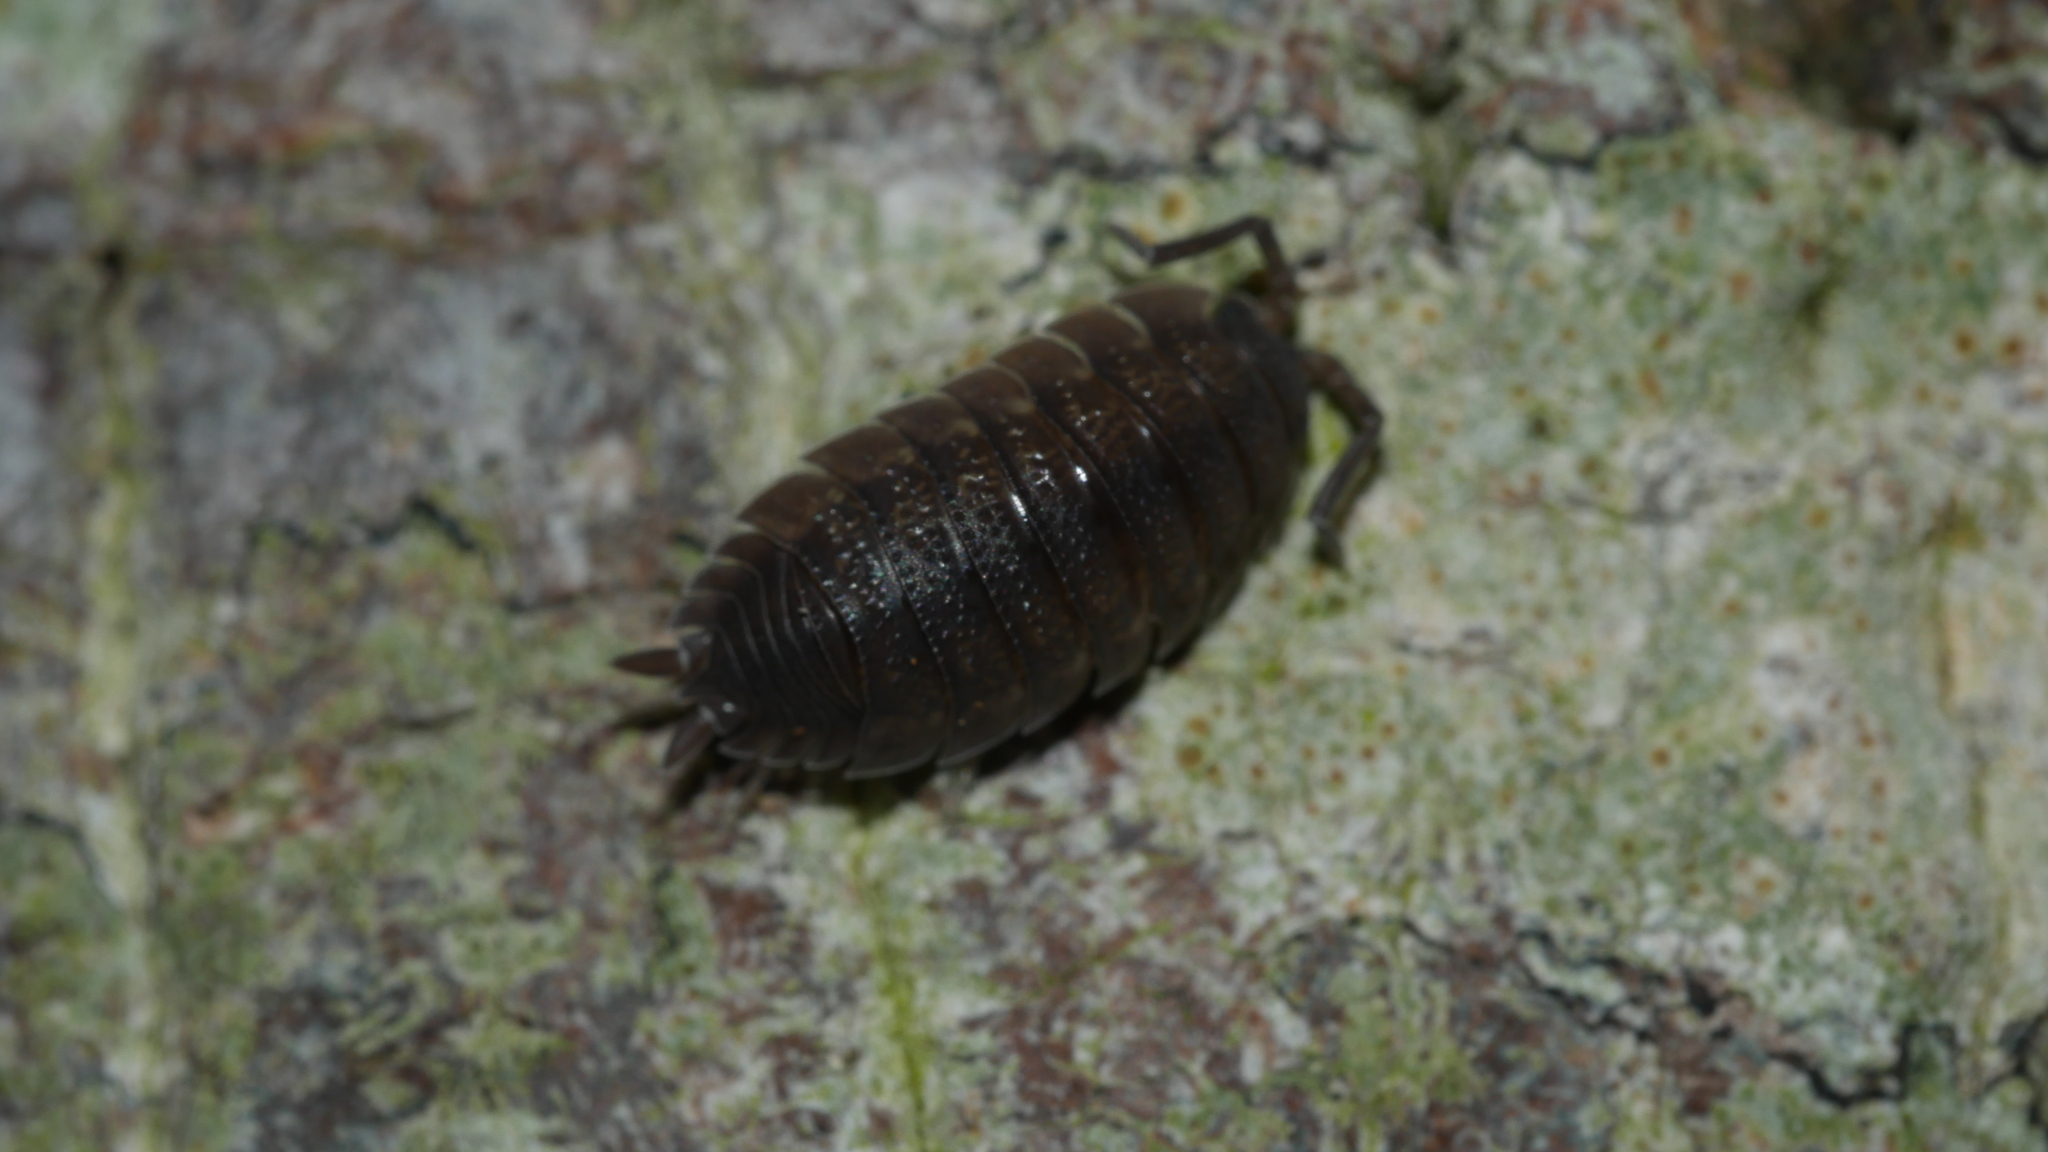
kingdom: Animalia
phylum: Arthropoda
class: Malacostraca
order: Isopoda
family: Porcellionidae
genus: Porcellio
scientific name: Porcellio scaber
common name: Common rough woodlouse
